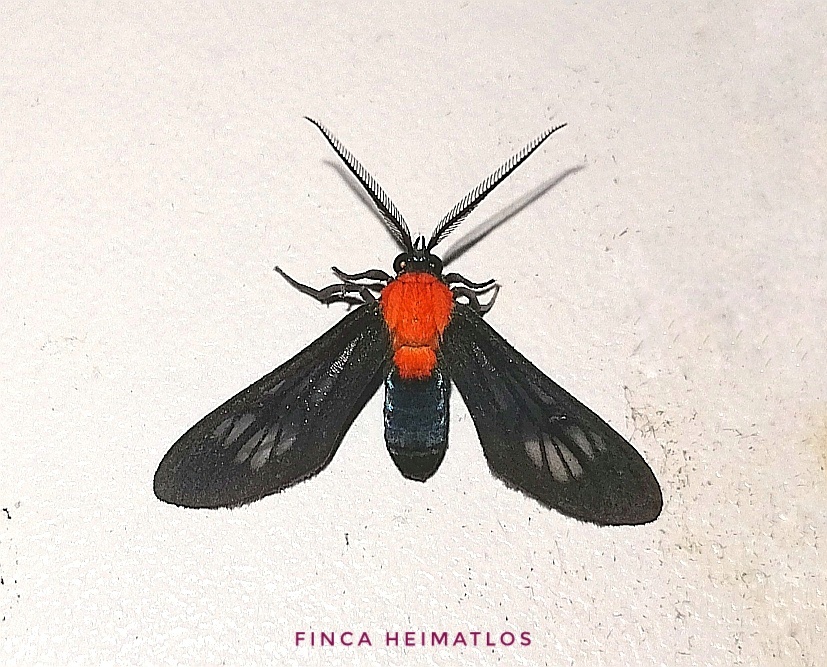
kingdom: Animalia
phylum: Arthropoda
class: Insecta
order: Lepidoptera
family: Erebidae
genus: Saurita
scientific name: Saurita hilda
